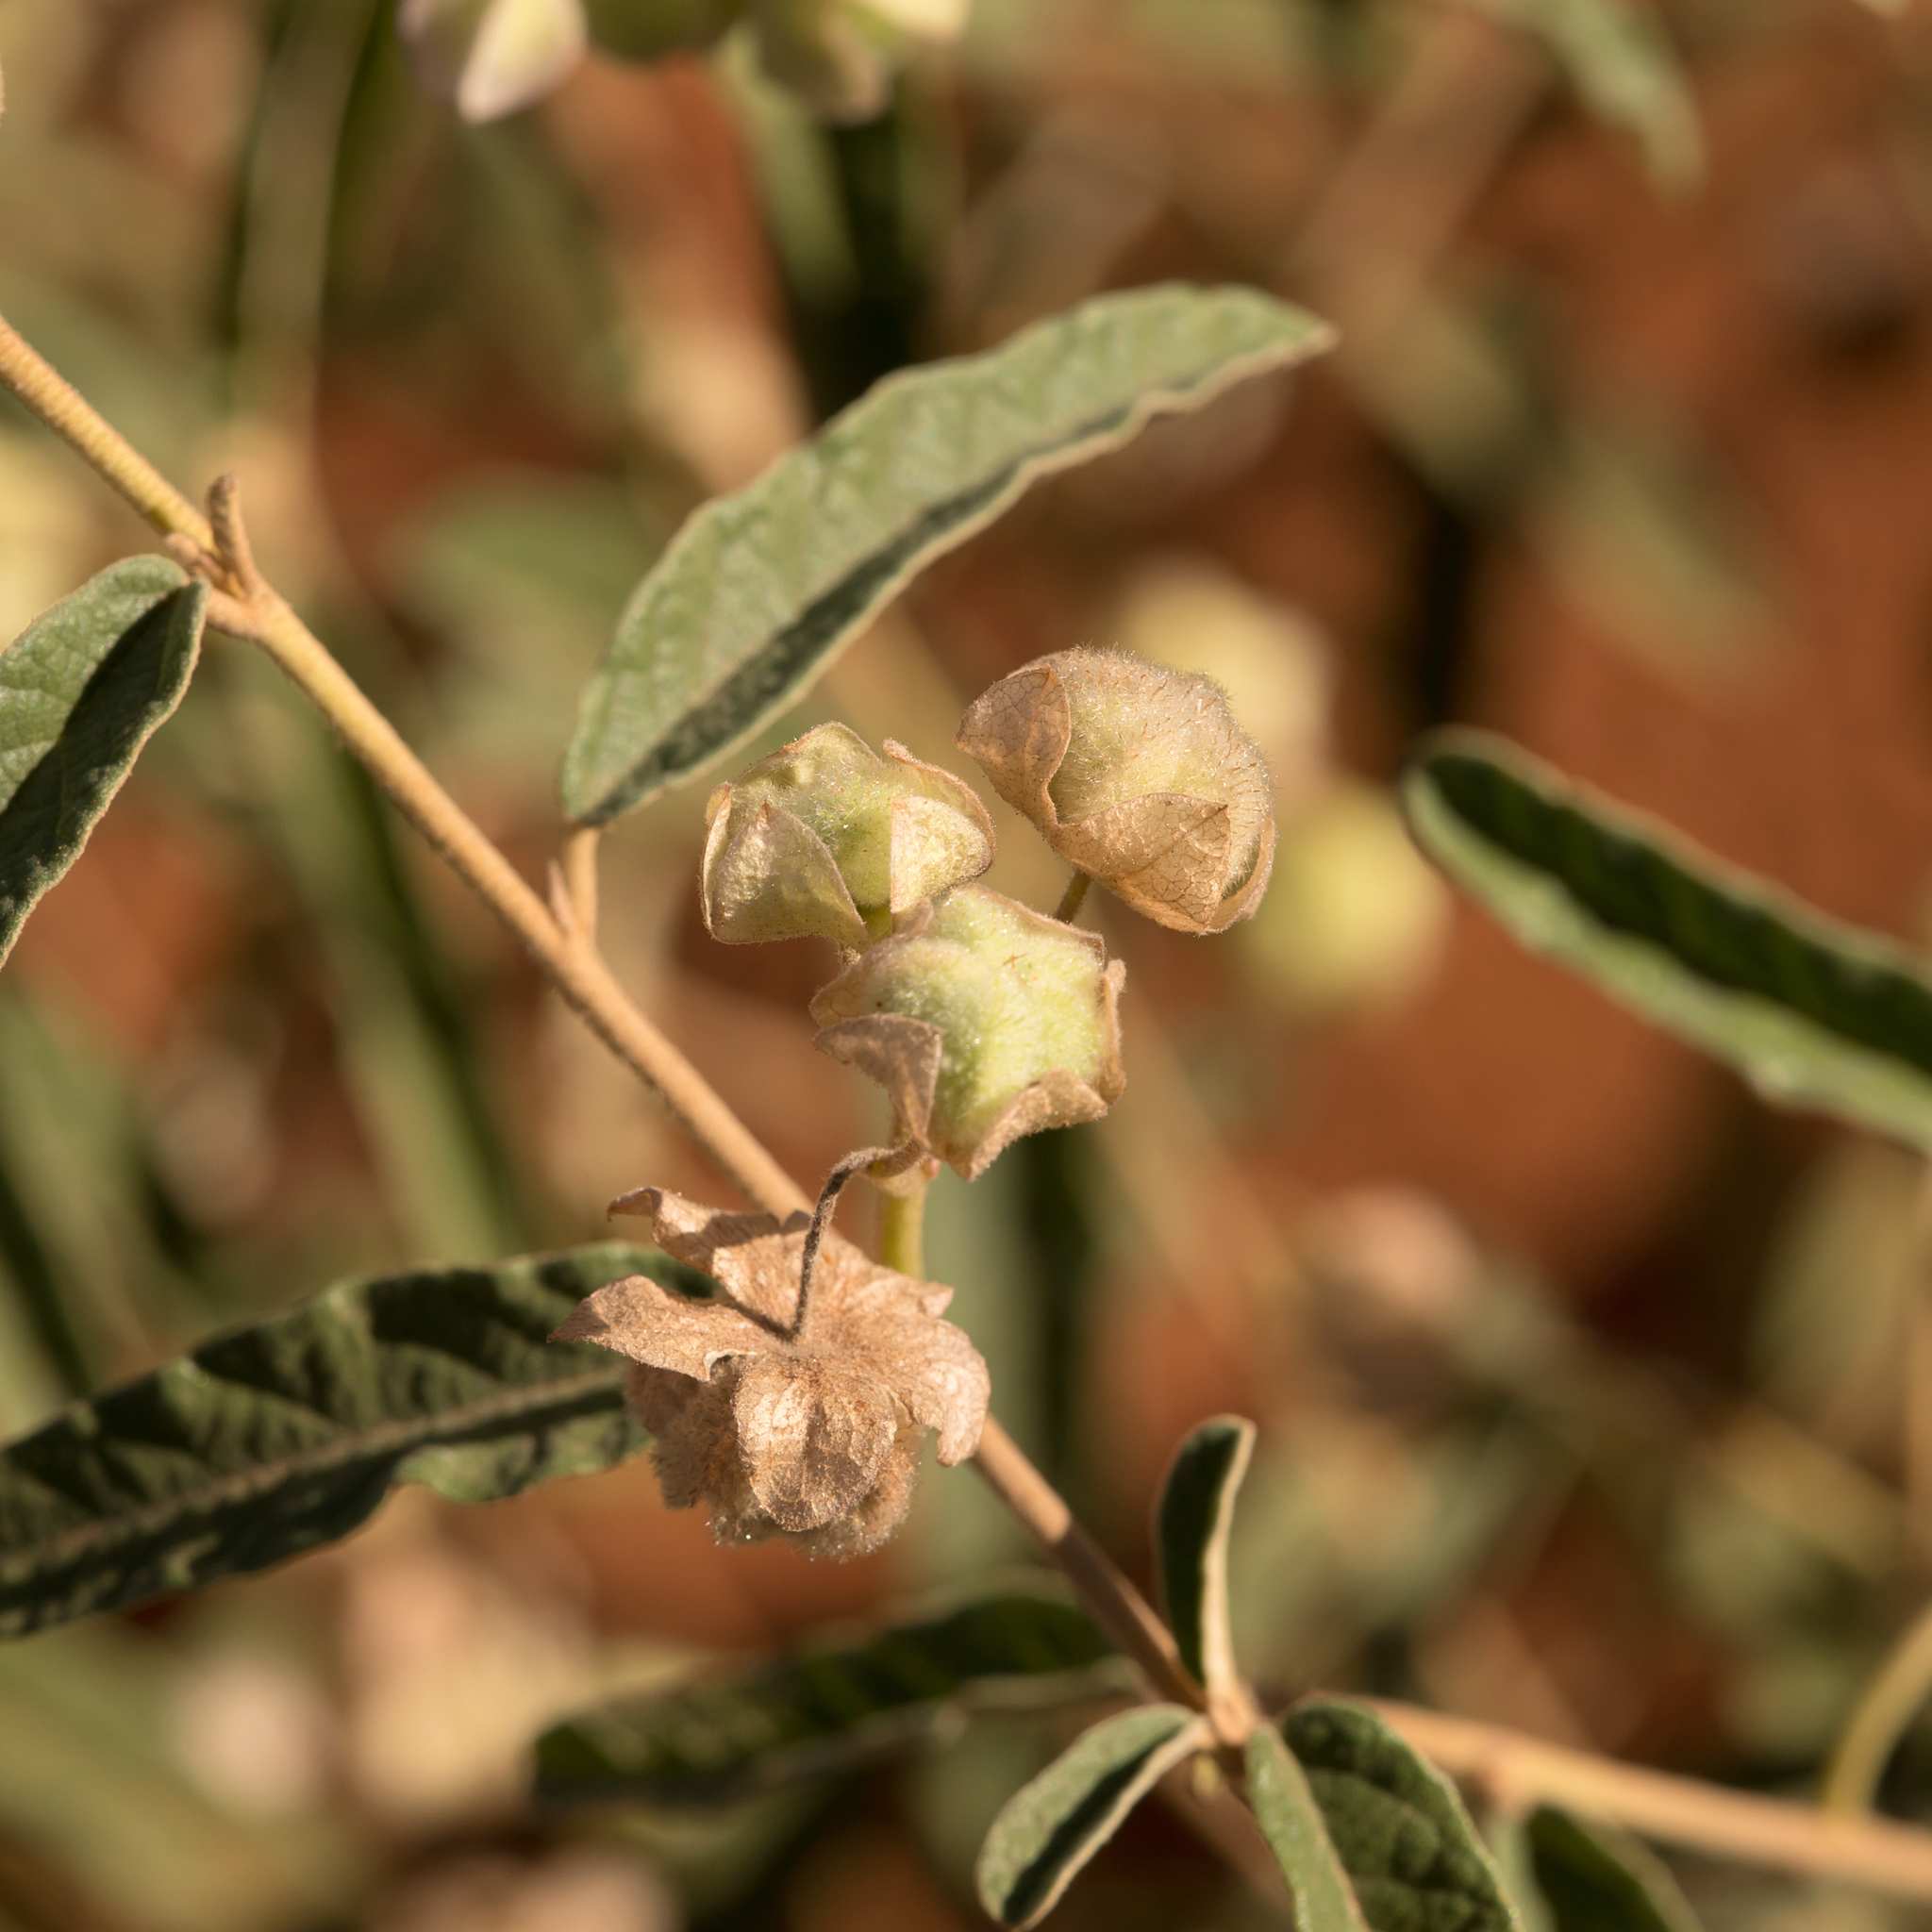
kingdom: Plantae
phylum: Tracheophyta
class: Magnoliopsida
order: Malvales
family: Malvaceae
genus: Seringia
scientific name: Seringia collina
